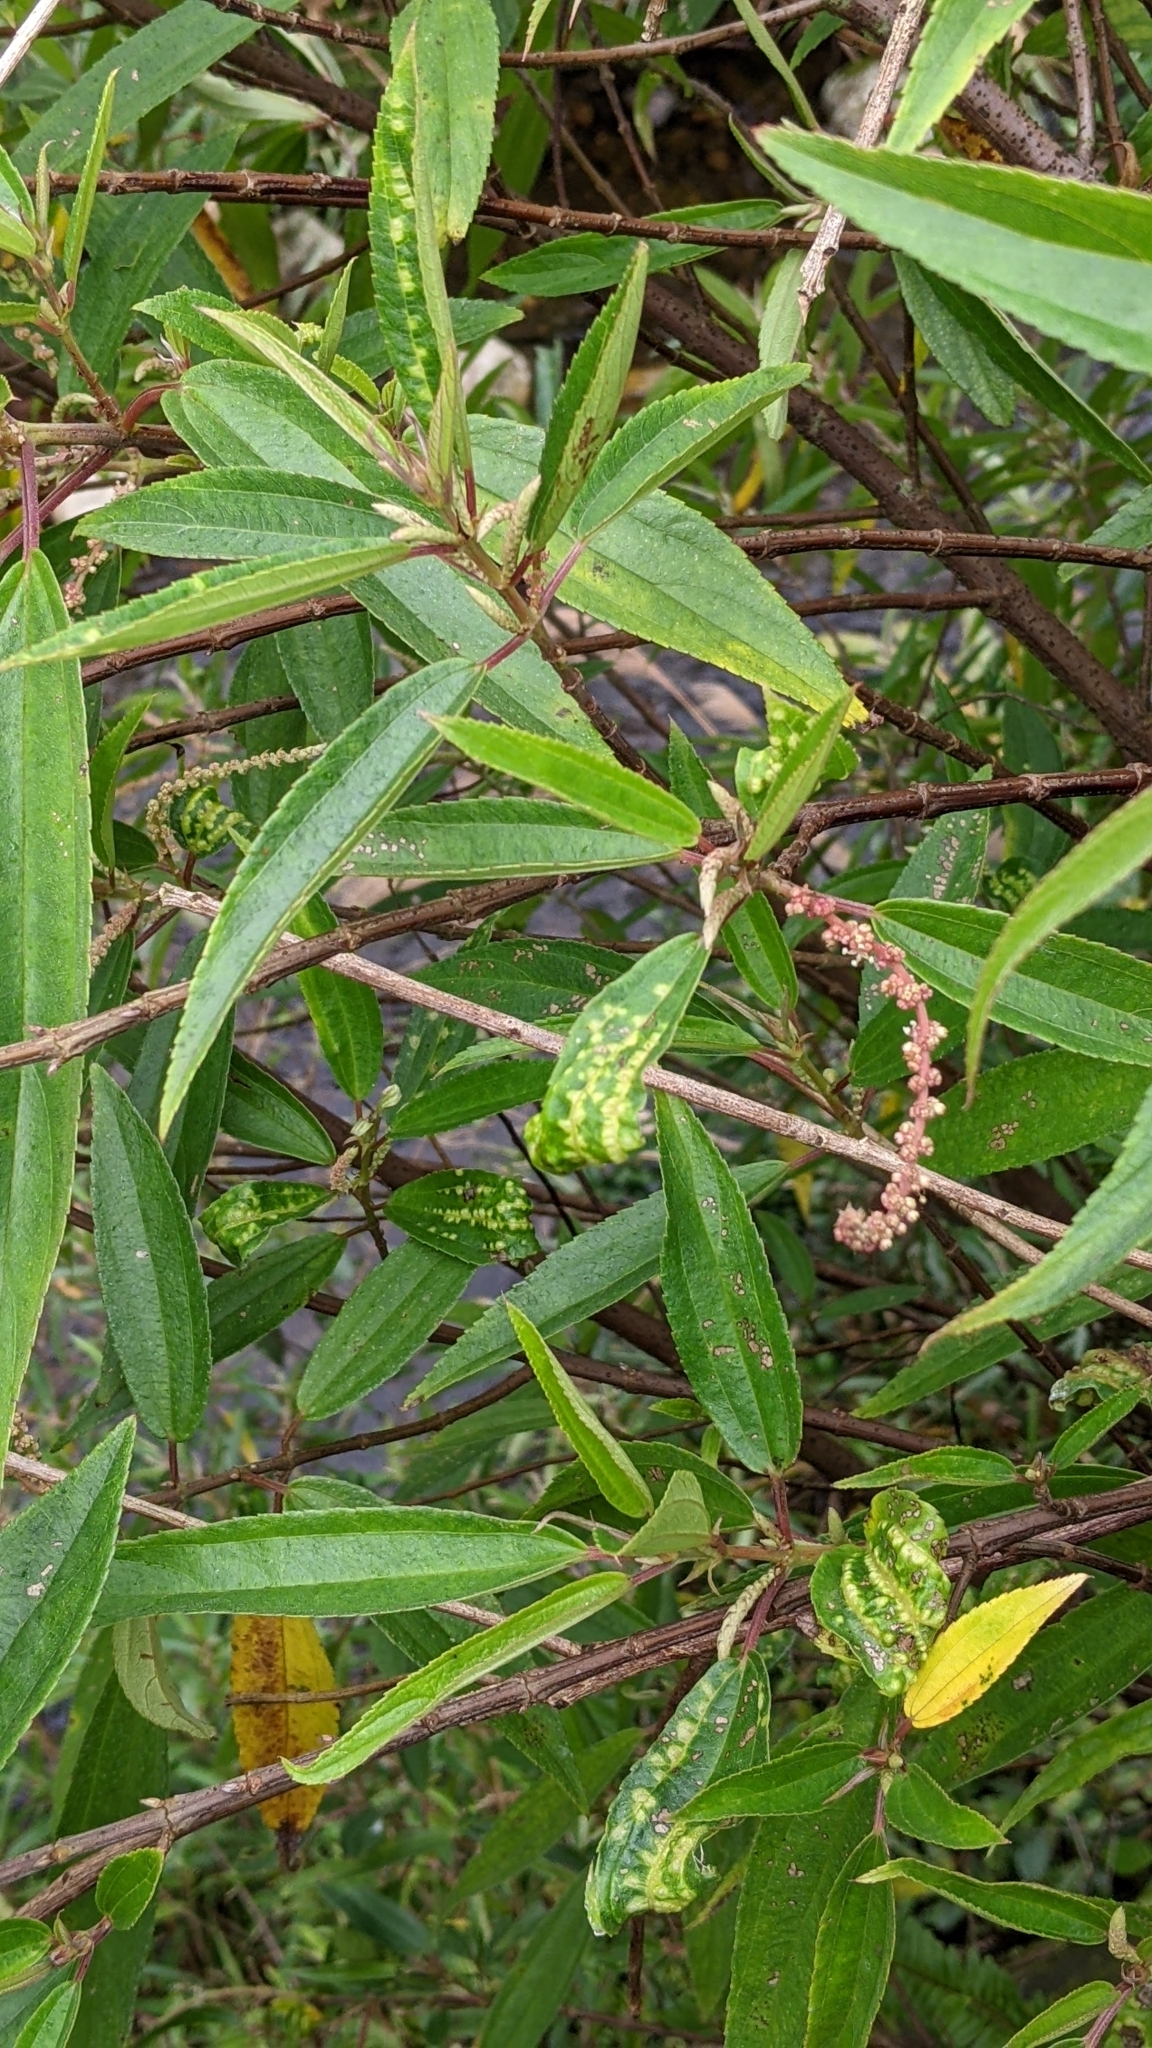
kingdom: Plantae
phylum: Tracheophyta
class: Magnoliopsida
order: Rosales
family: Urticaceae
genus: Boehmeria
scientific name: Boehmeria densiflora
